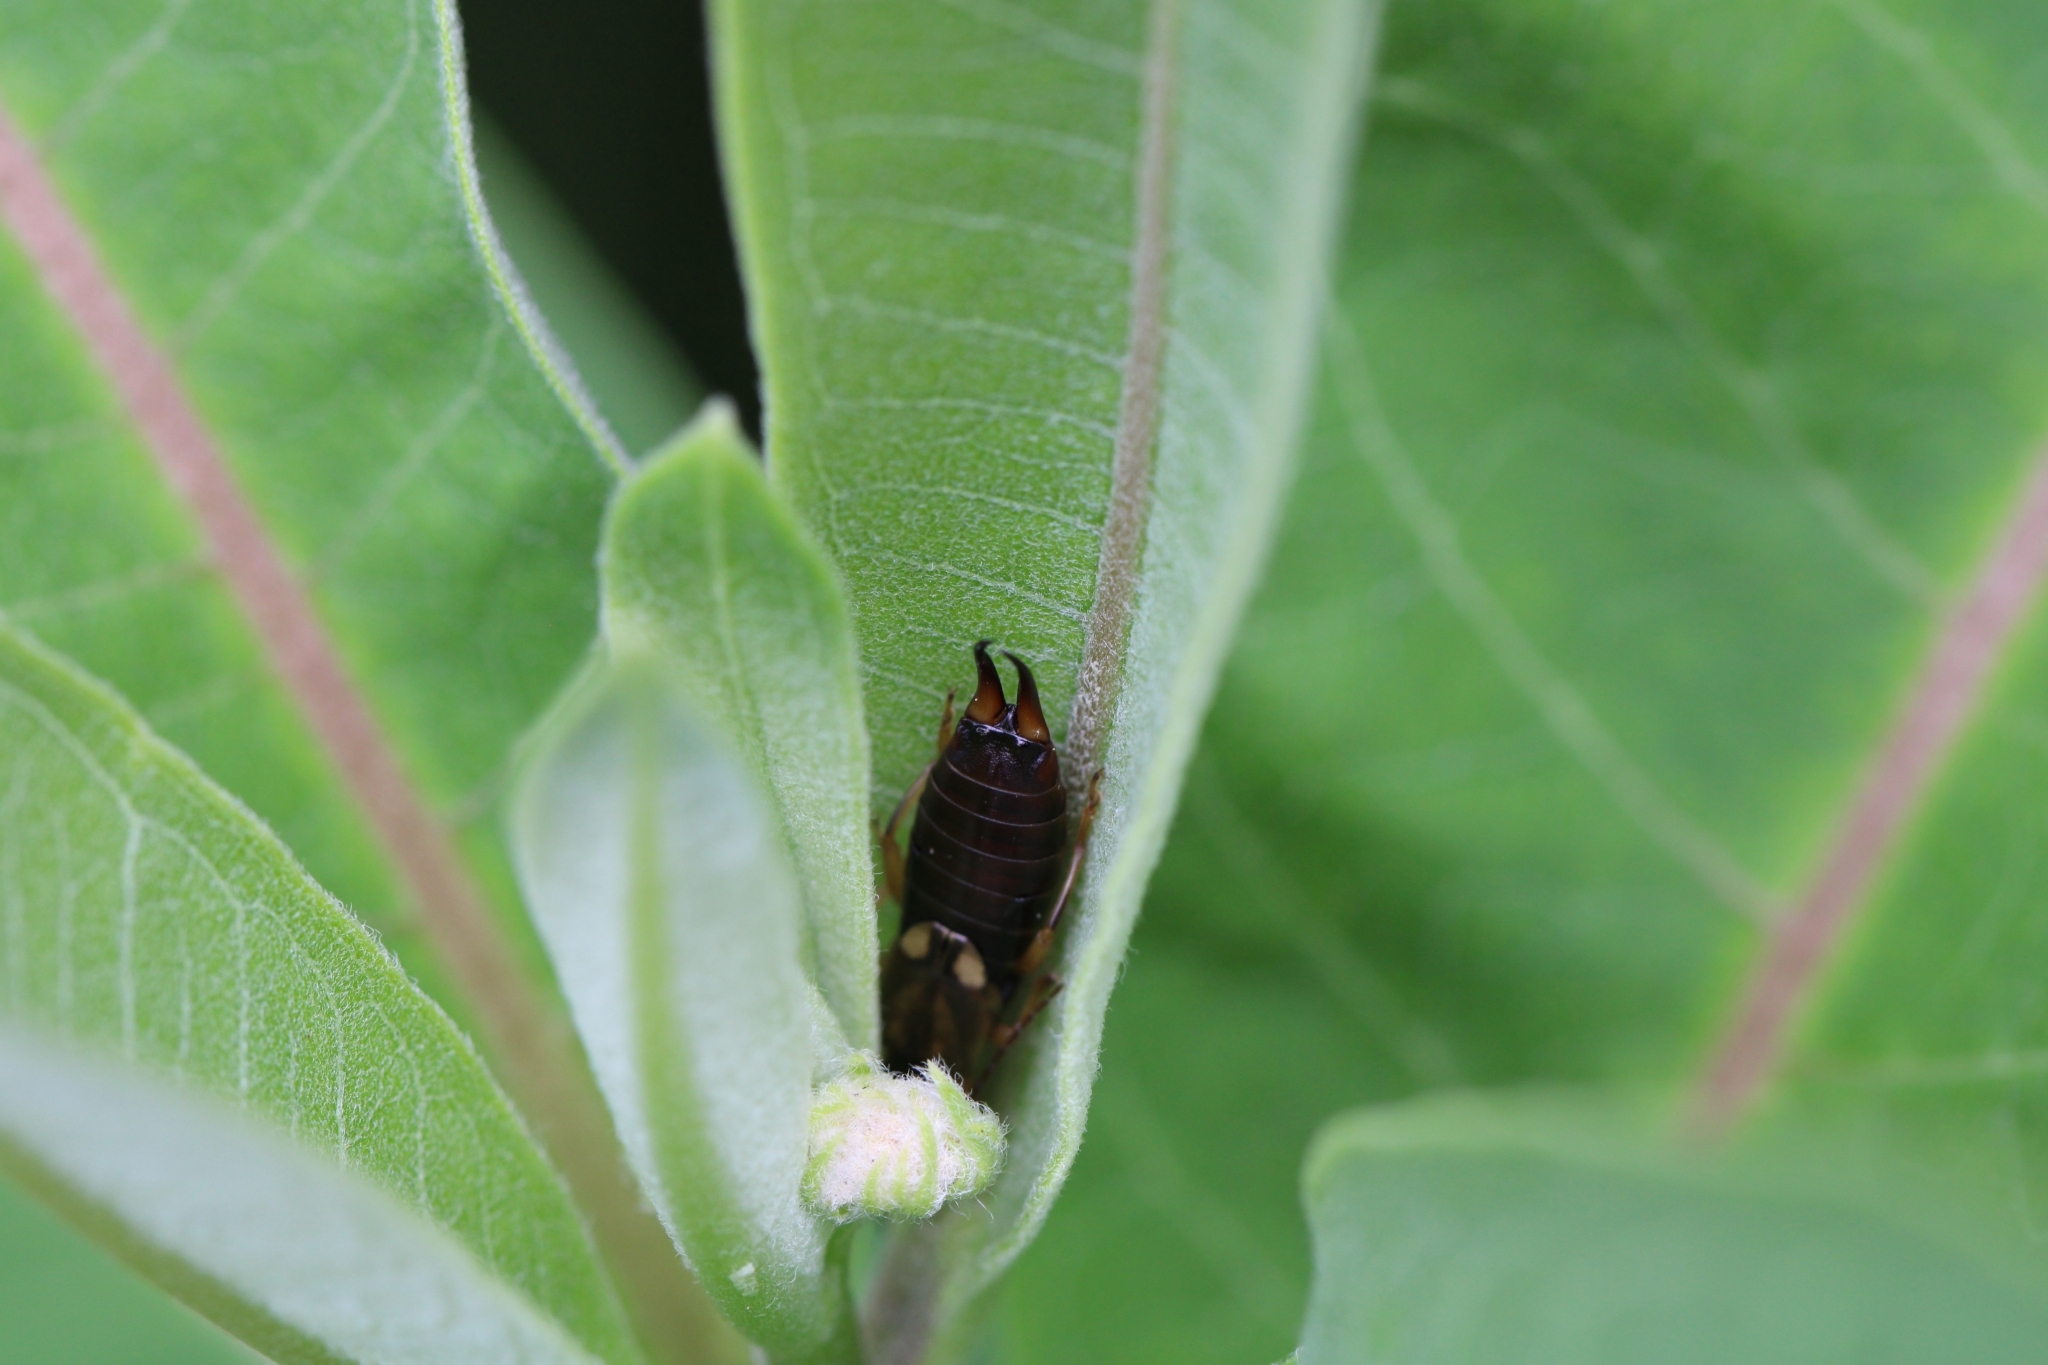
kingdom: Animalia
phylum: Arthropoda
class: Insecta
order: Dermaptera
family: Forficulidae
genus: Forficula
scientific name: Forficula
